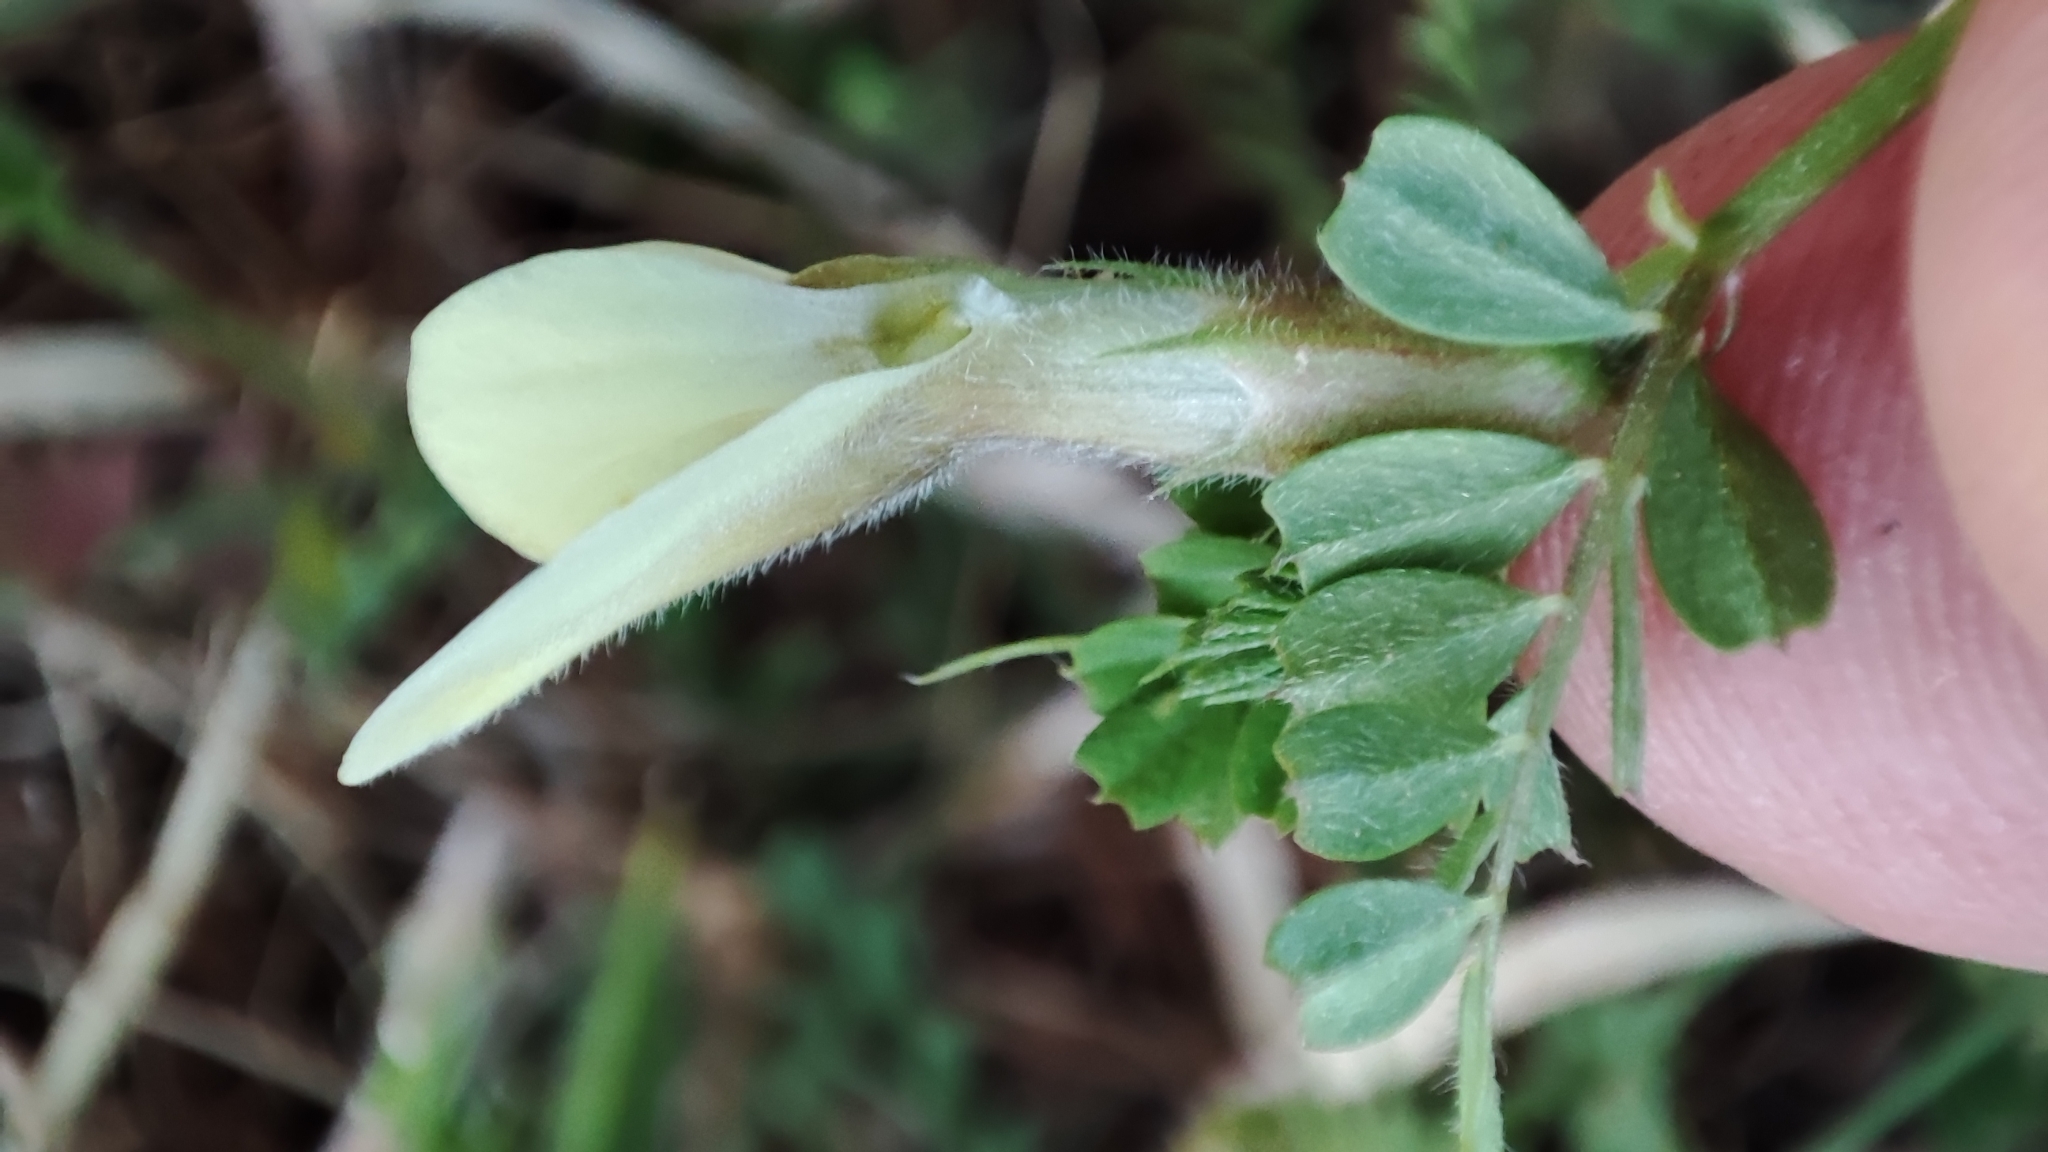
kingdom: Plantae
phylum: Tracheophyta
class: Magnoliopsida
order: Fabales
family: Fabaceae
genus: Vicia
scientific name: Vicia hybrida
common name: Hairy yellow vetch
